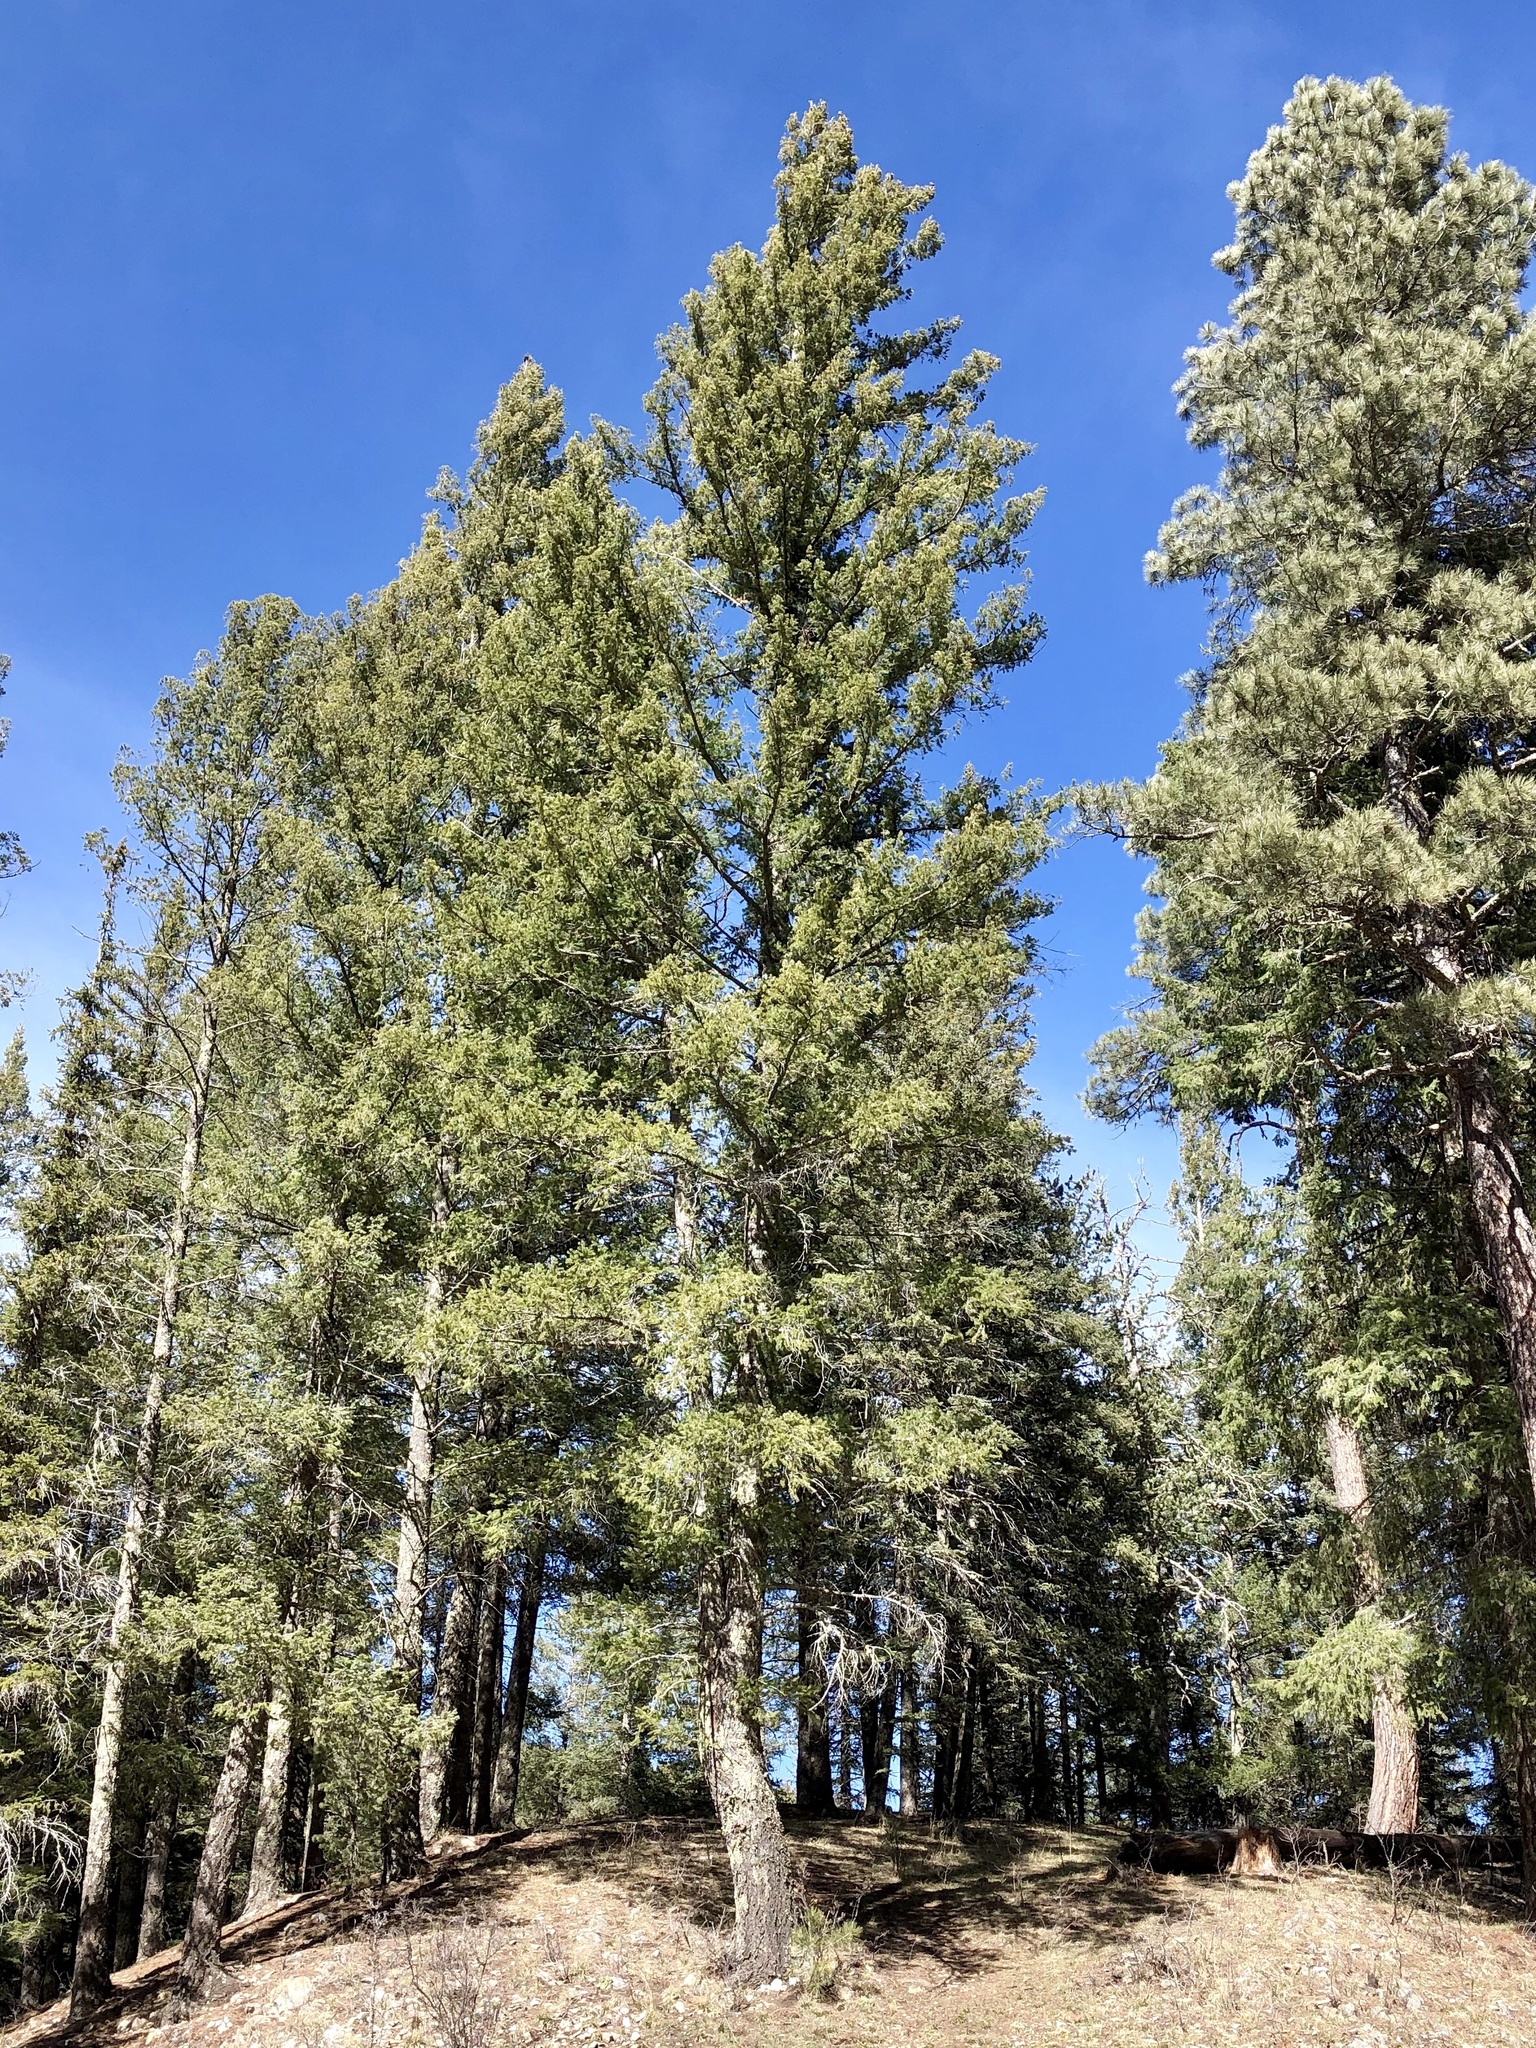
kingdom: Plantae
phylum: Tracheophyta
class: Pinopsida
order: Pinales
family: Pinaceae
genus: Pseudotsuga
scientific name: Pseudotsuga menziesii
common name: Douglas fir
